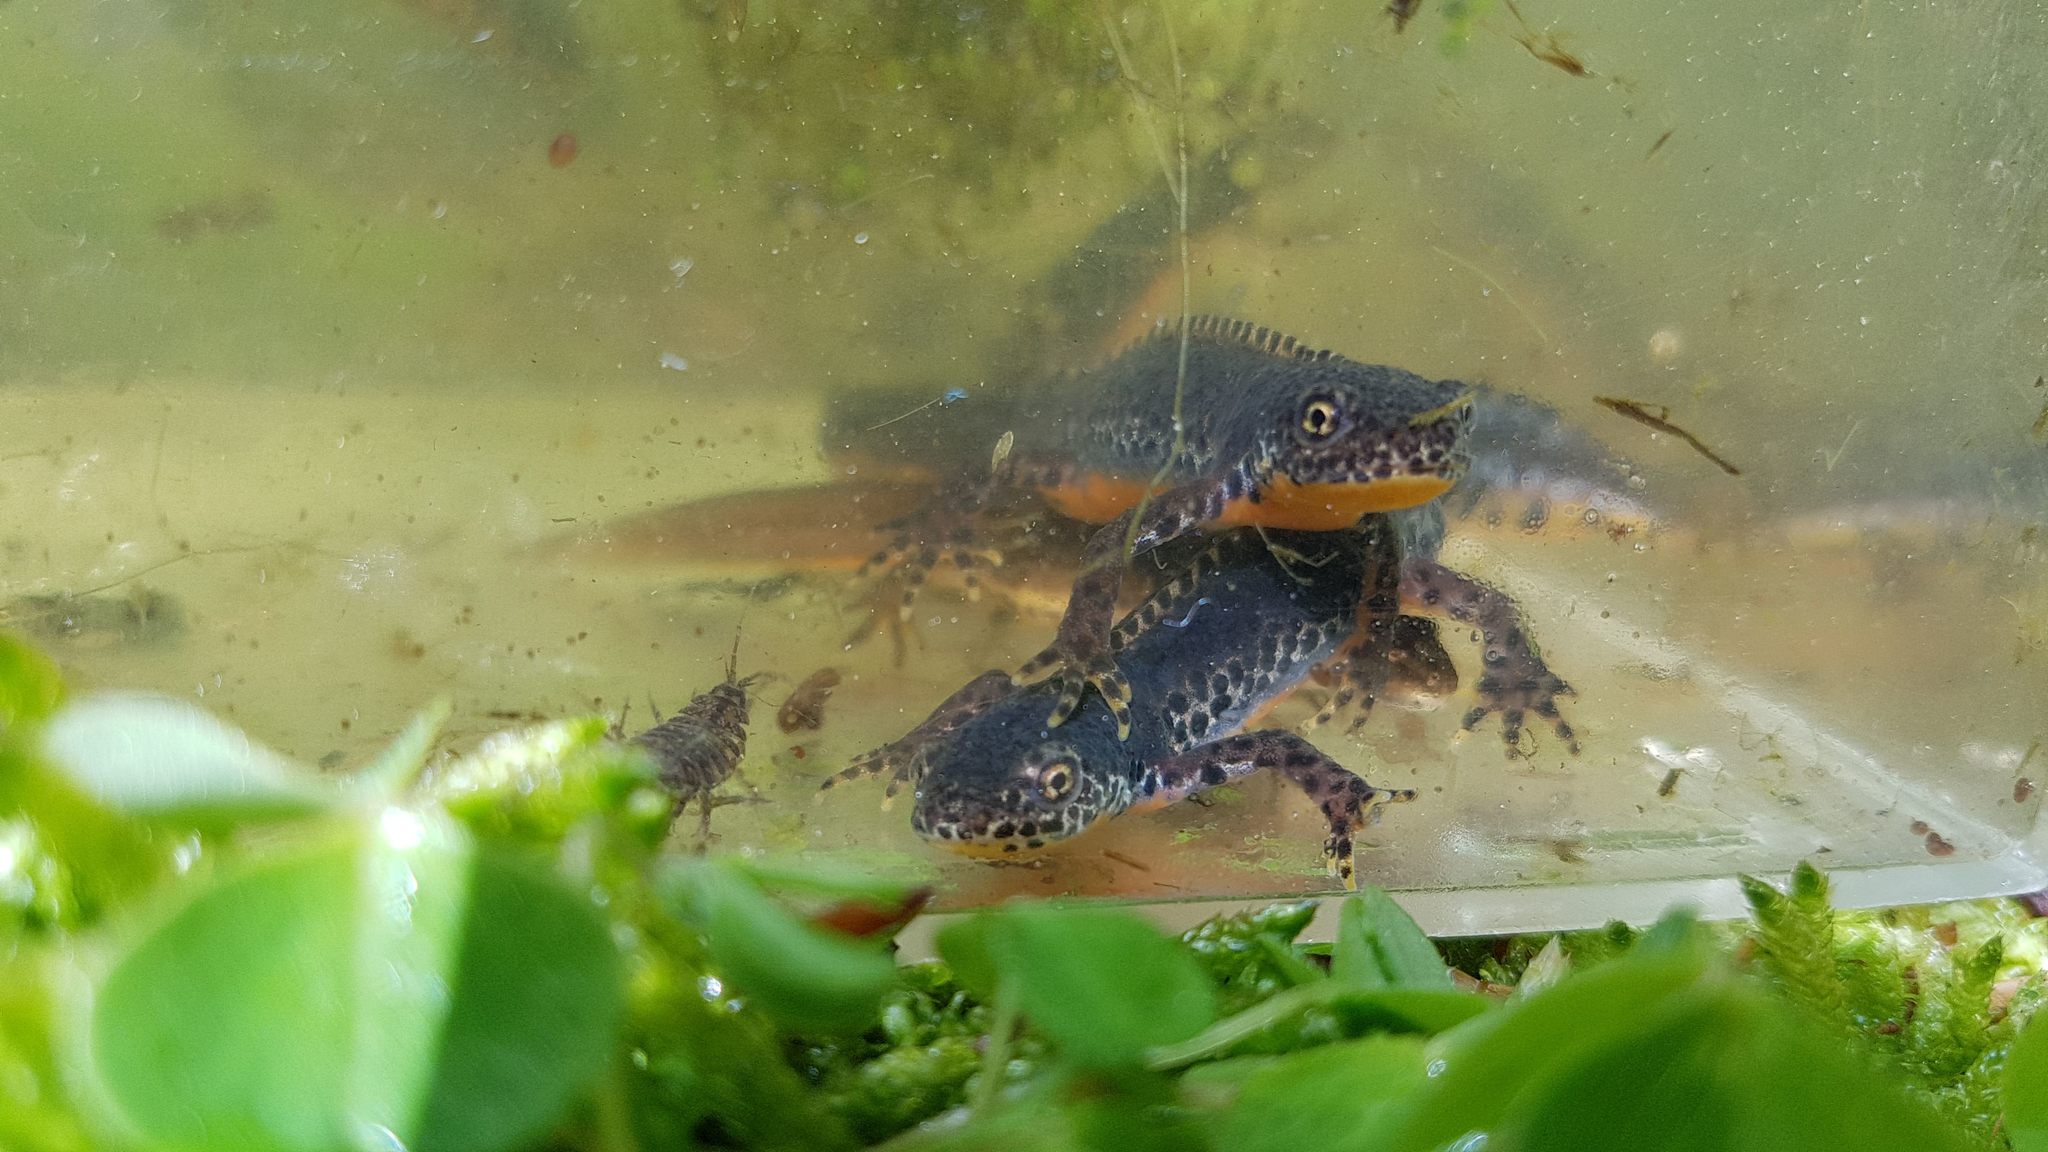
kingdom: Animalia
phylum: Chordata
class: Amphibia
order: Caudata
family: Salamandridae
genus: Ichthyosaura
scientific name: Ichthyosaura alpestris
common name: Alpine newt
